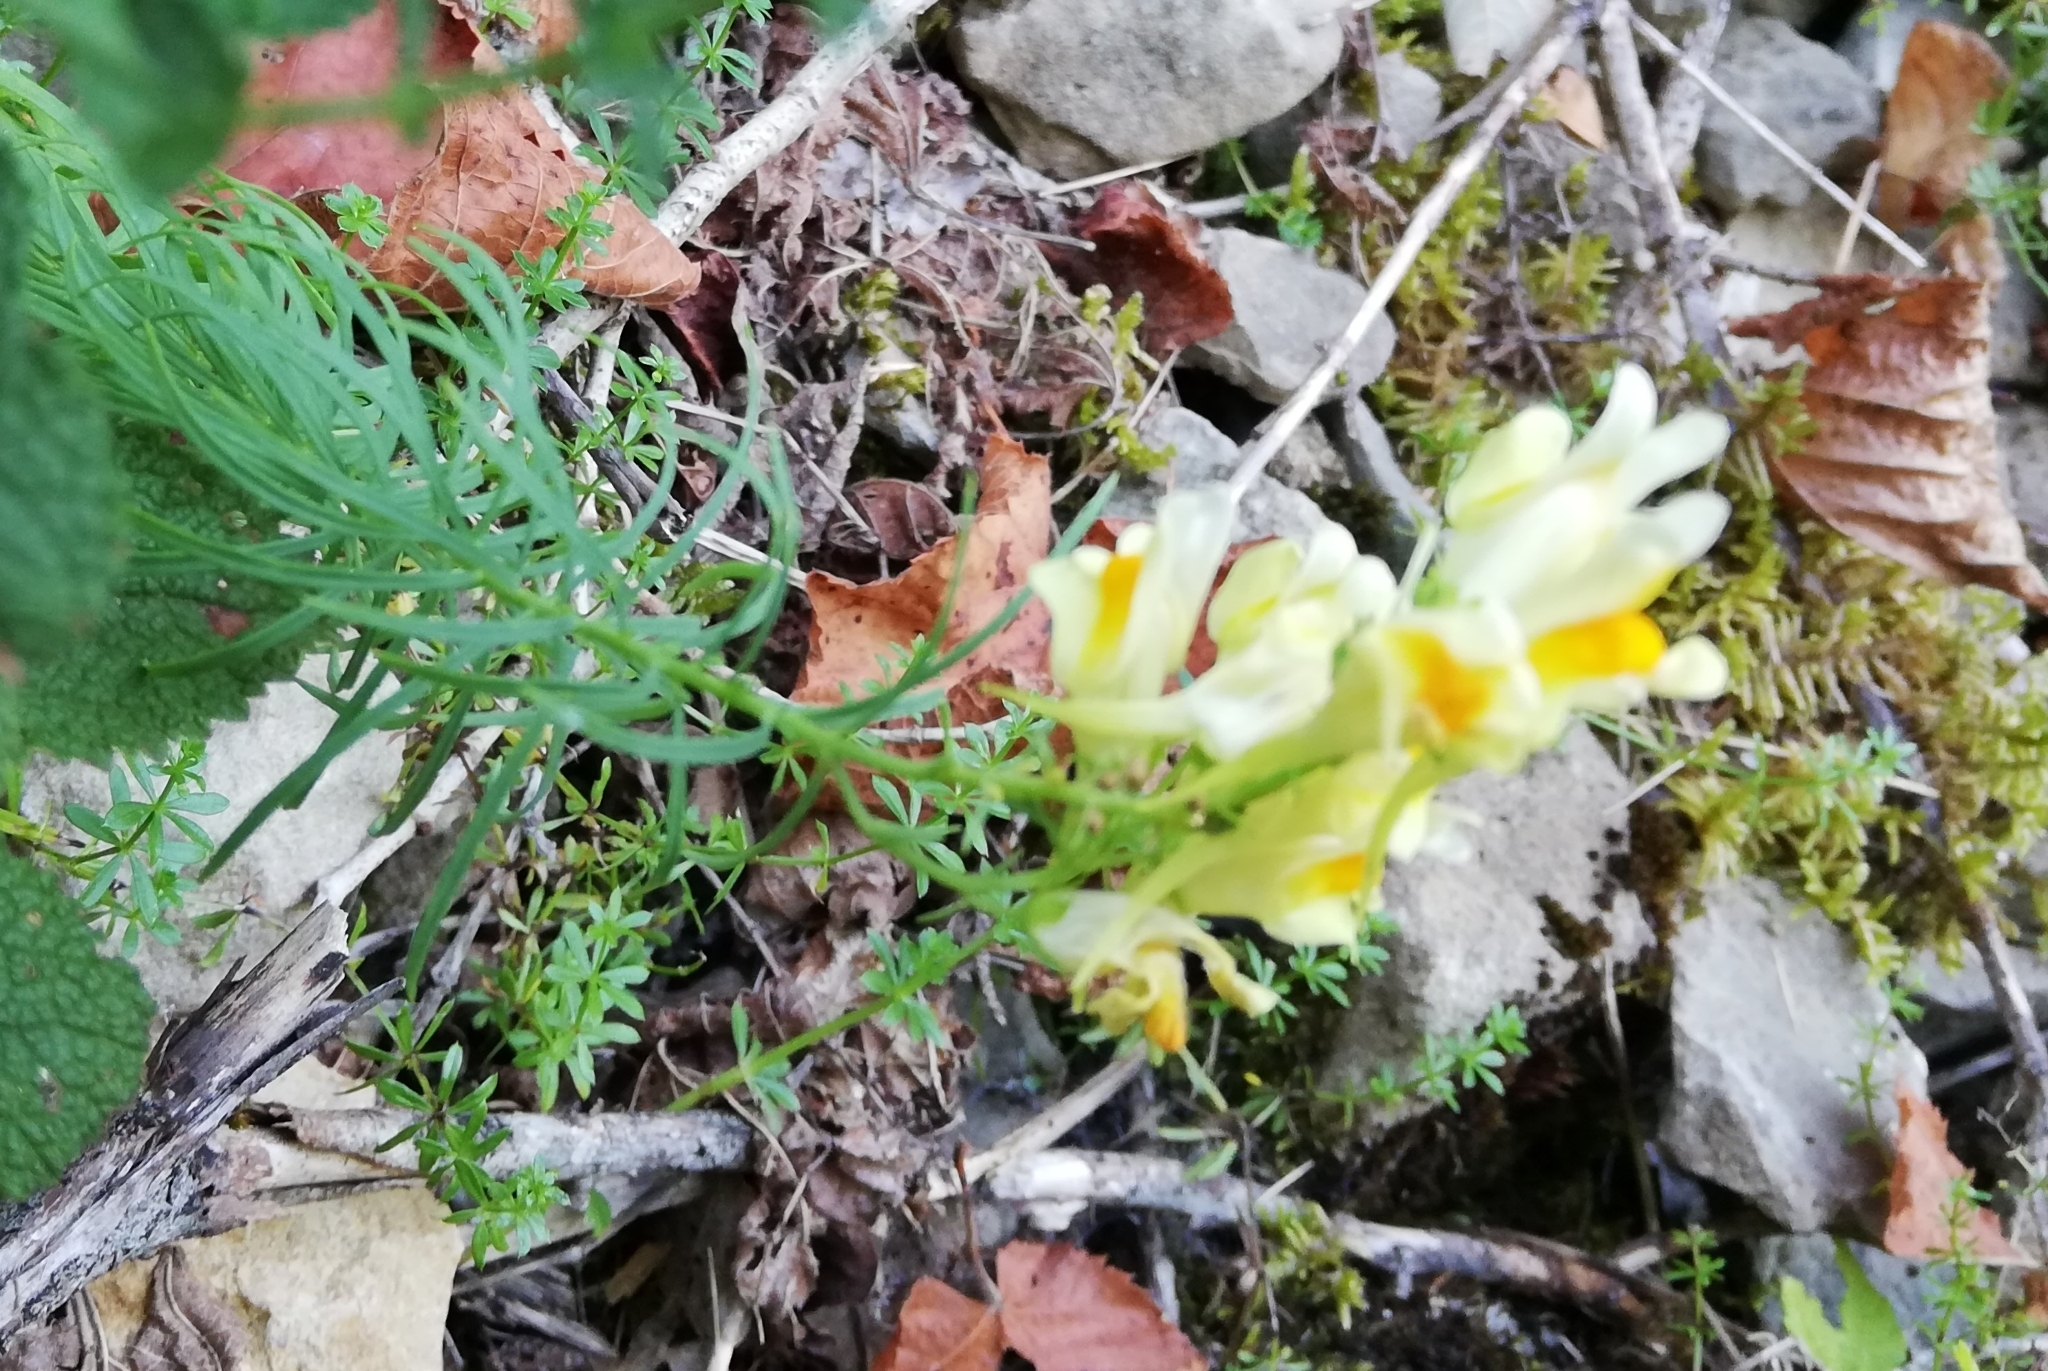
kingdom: Plantae
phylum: Tracheophyta
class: Magnoliopsida
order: Lamiales
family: Plantaginaceae
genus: Linaria
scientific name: Linaria vulgaris
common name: Butter and eggs
